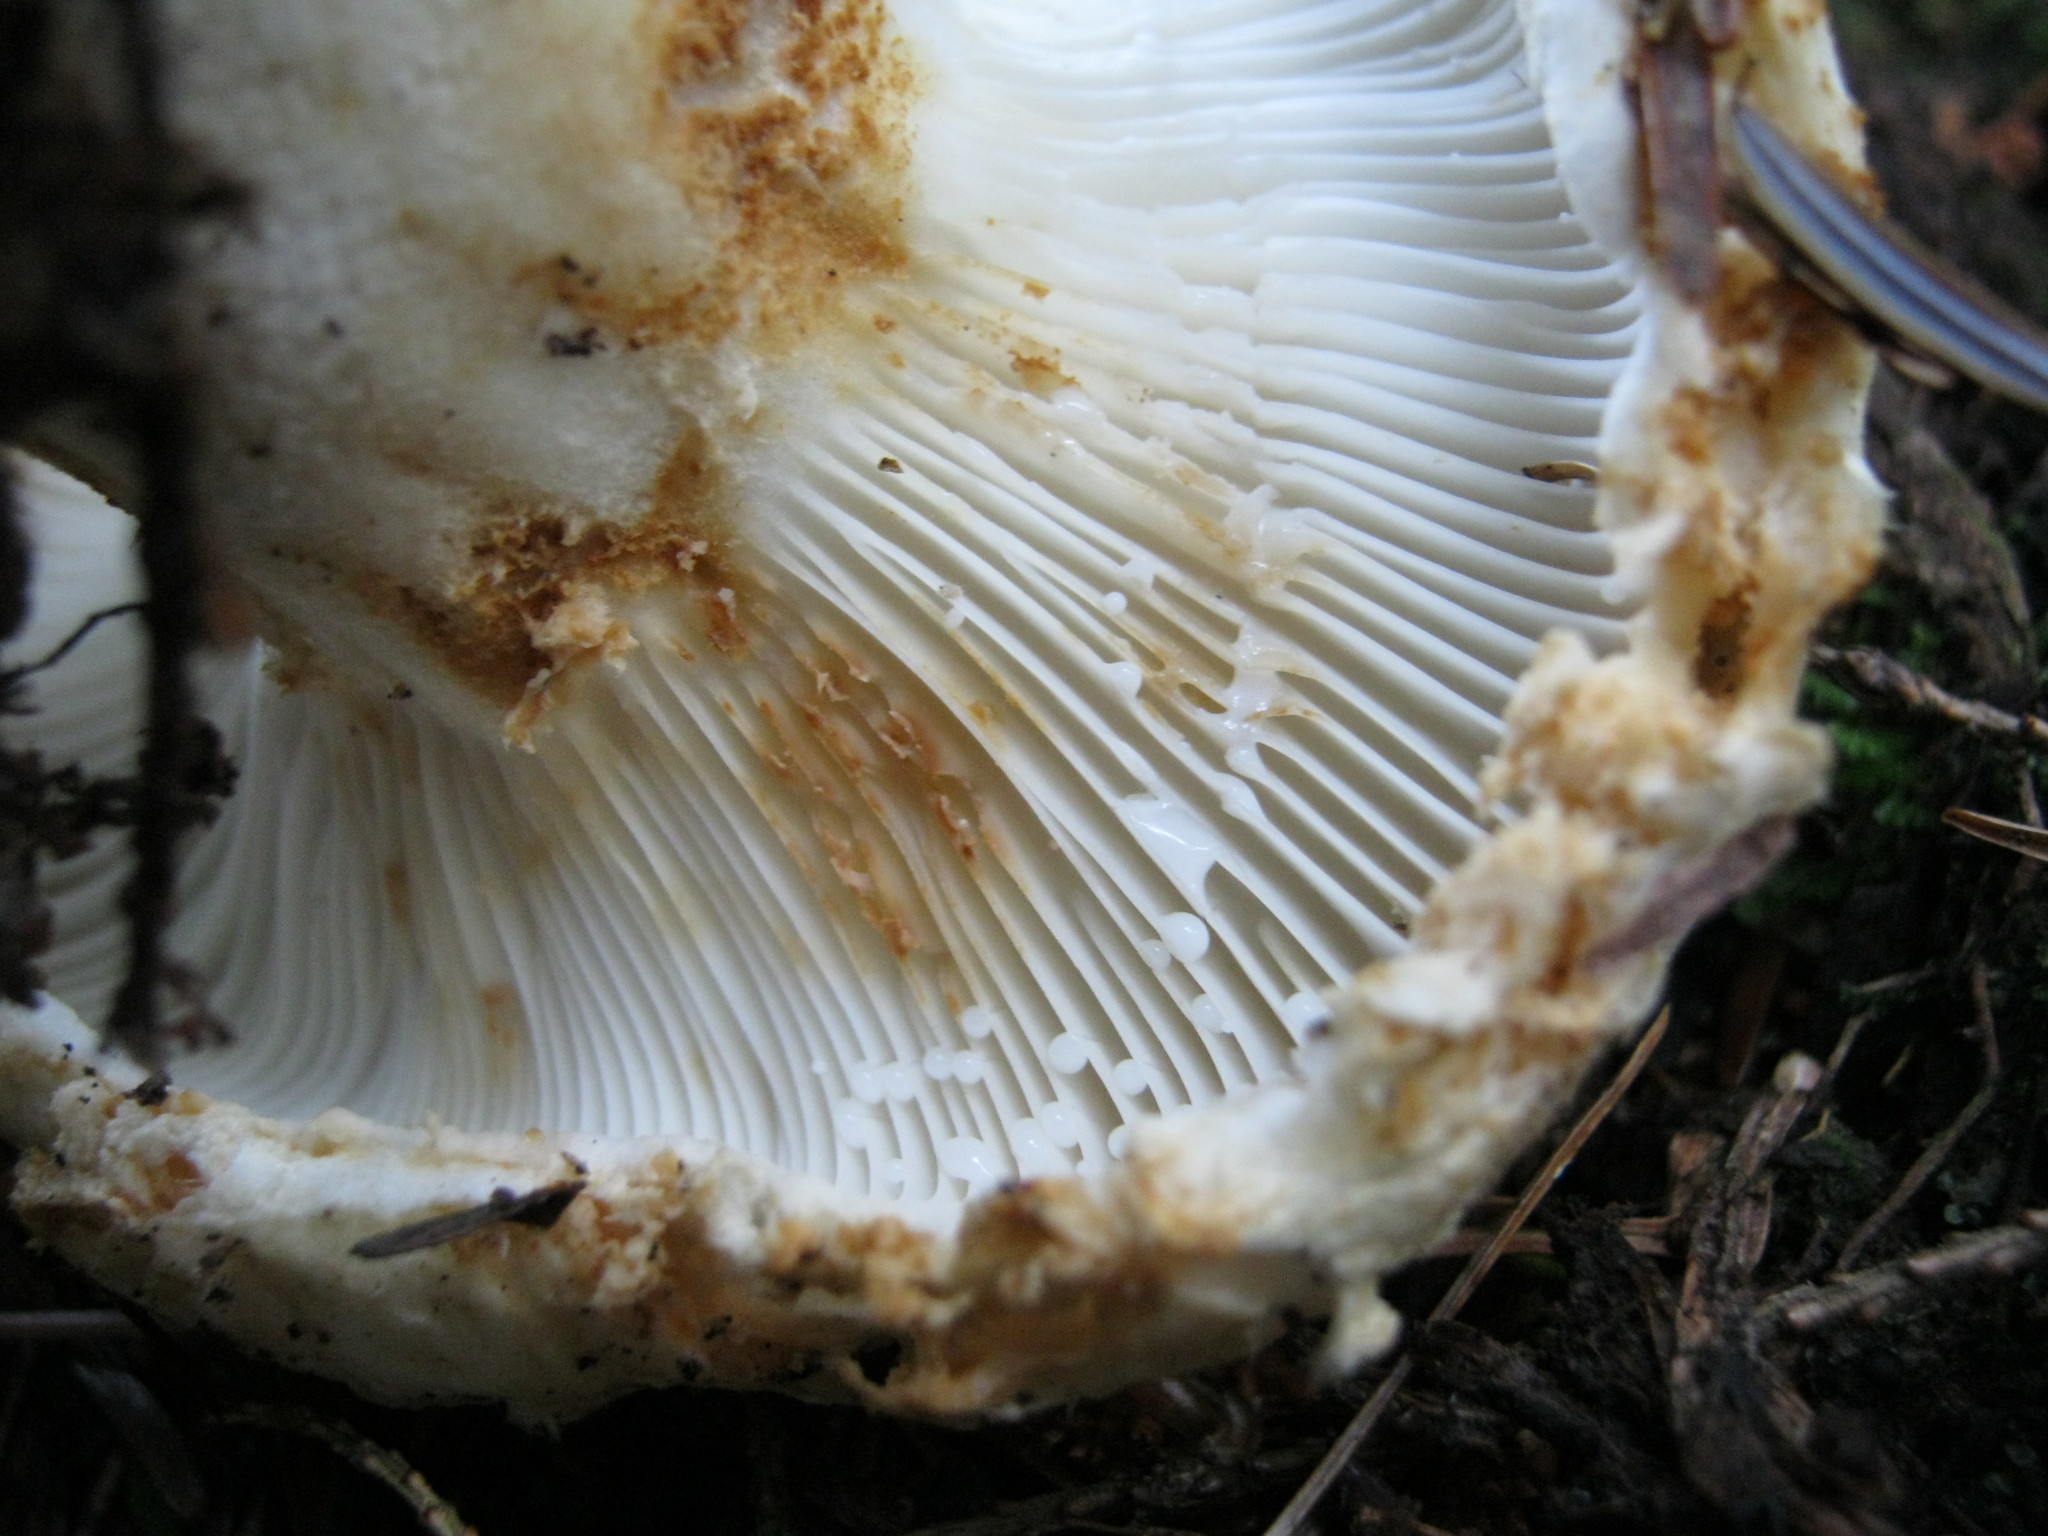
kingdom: Fungi
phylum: Basidiomycota
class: Agaricomycetes
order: Russulales
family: Russulaceae
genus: Lactifluus
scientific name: Lactifluus
